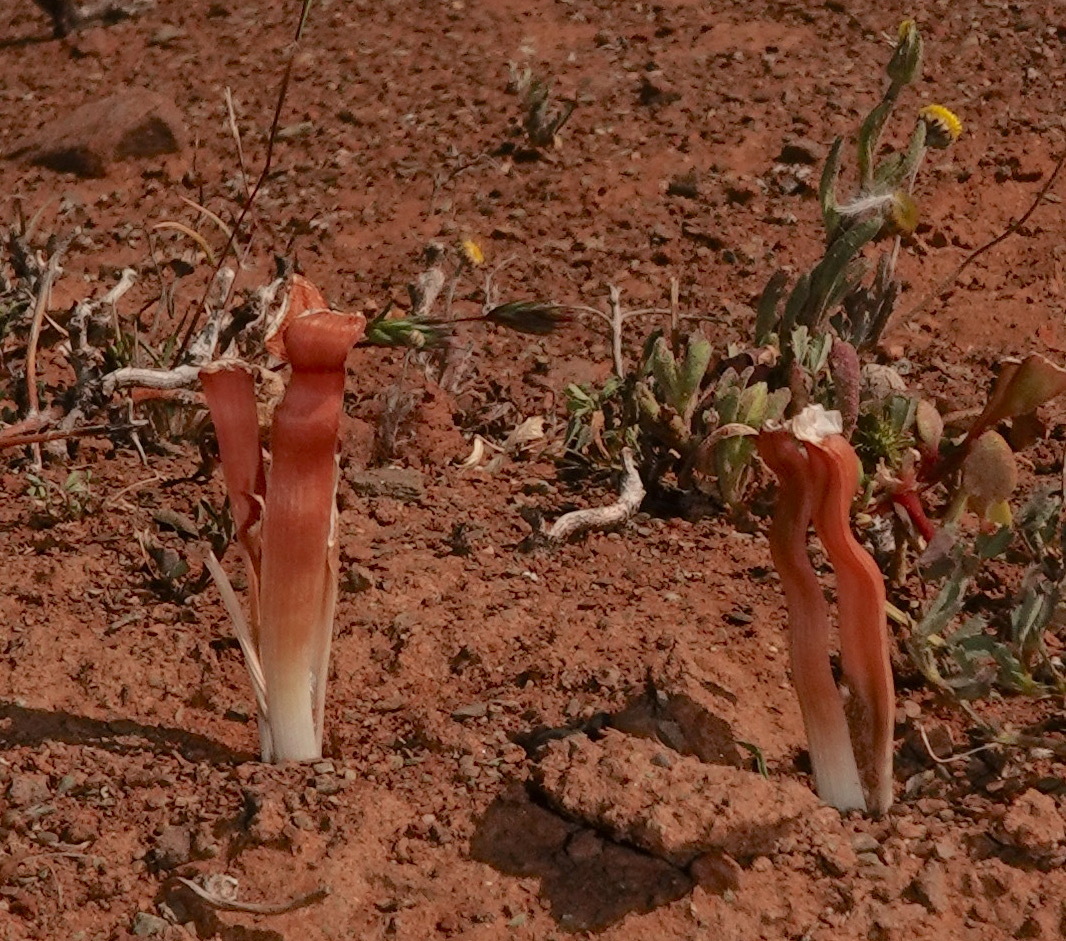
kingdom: Plantae
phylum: Tracheophyta
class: Liliopsida
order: Asparagales
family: Asphodelaceae
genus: Trachyandra
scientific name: Trachyandra tortilis
